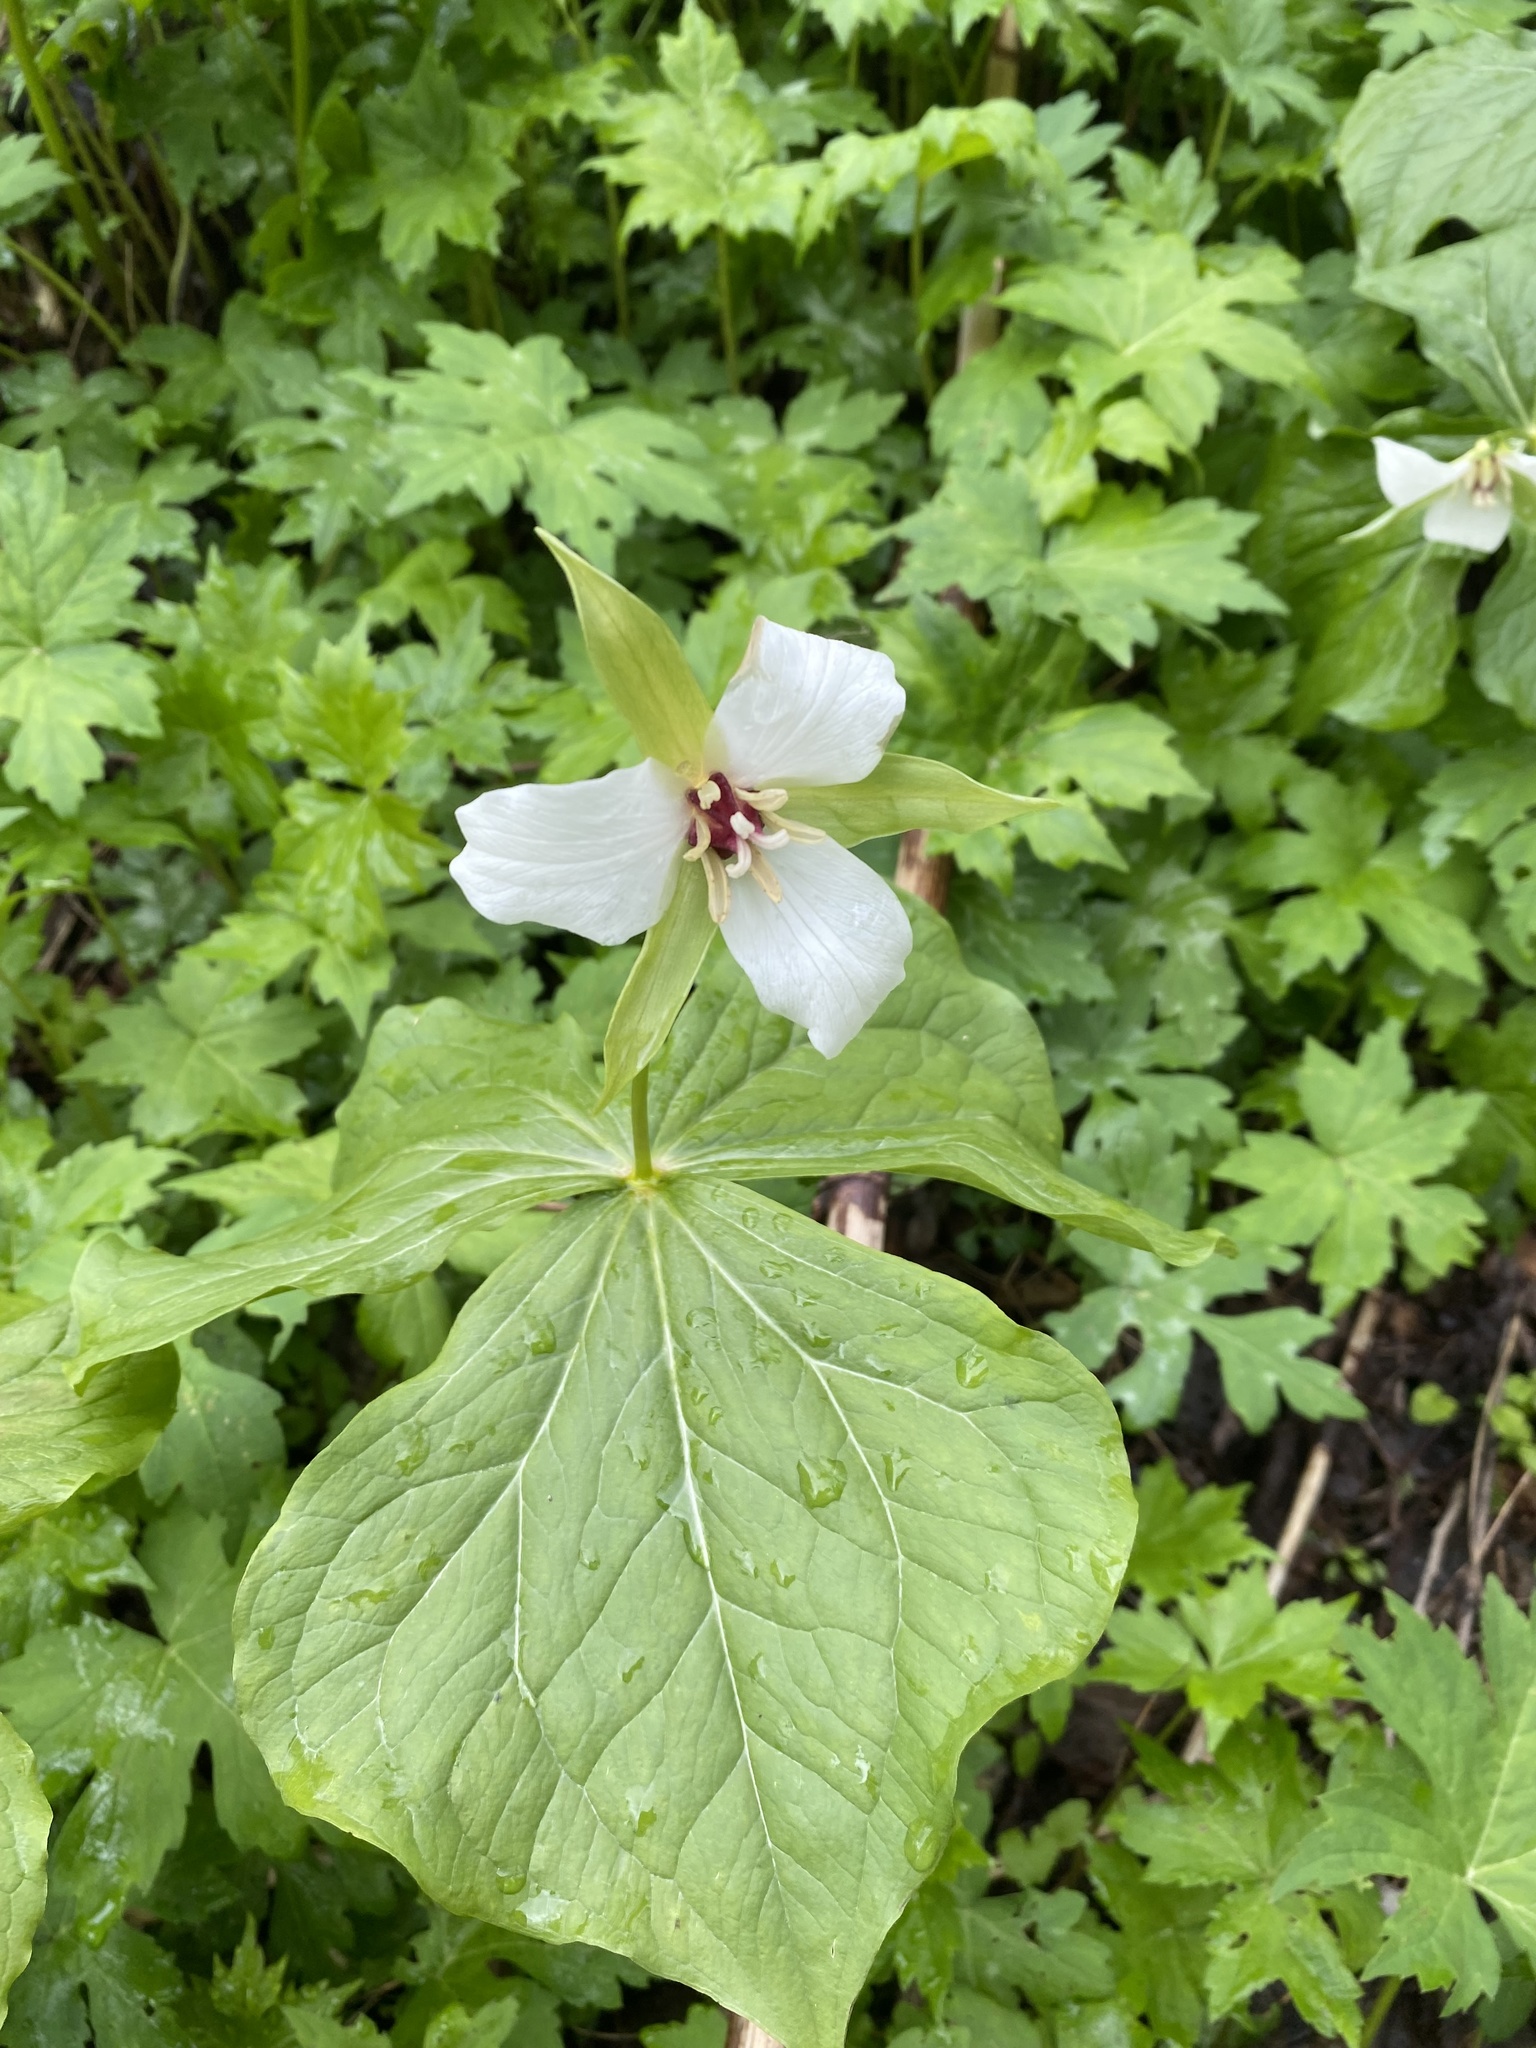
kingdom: Plantae
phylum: Tracheophyta
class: Liliopsida
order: Liliales
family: Melanthiaceae
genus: Trillium
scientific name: Trillium erectum
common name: Purple trillium
